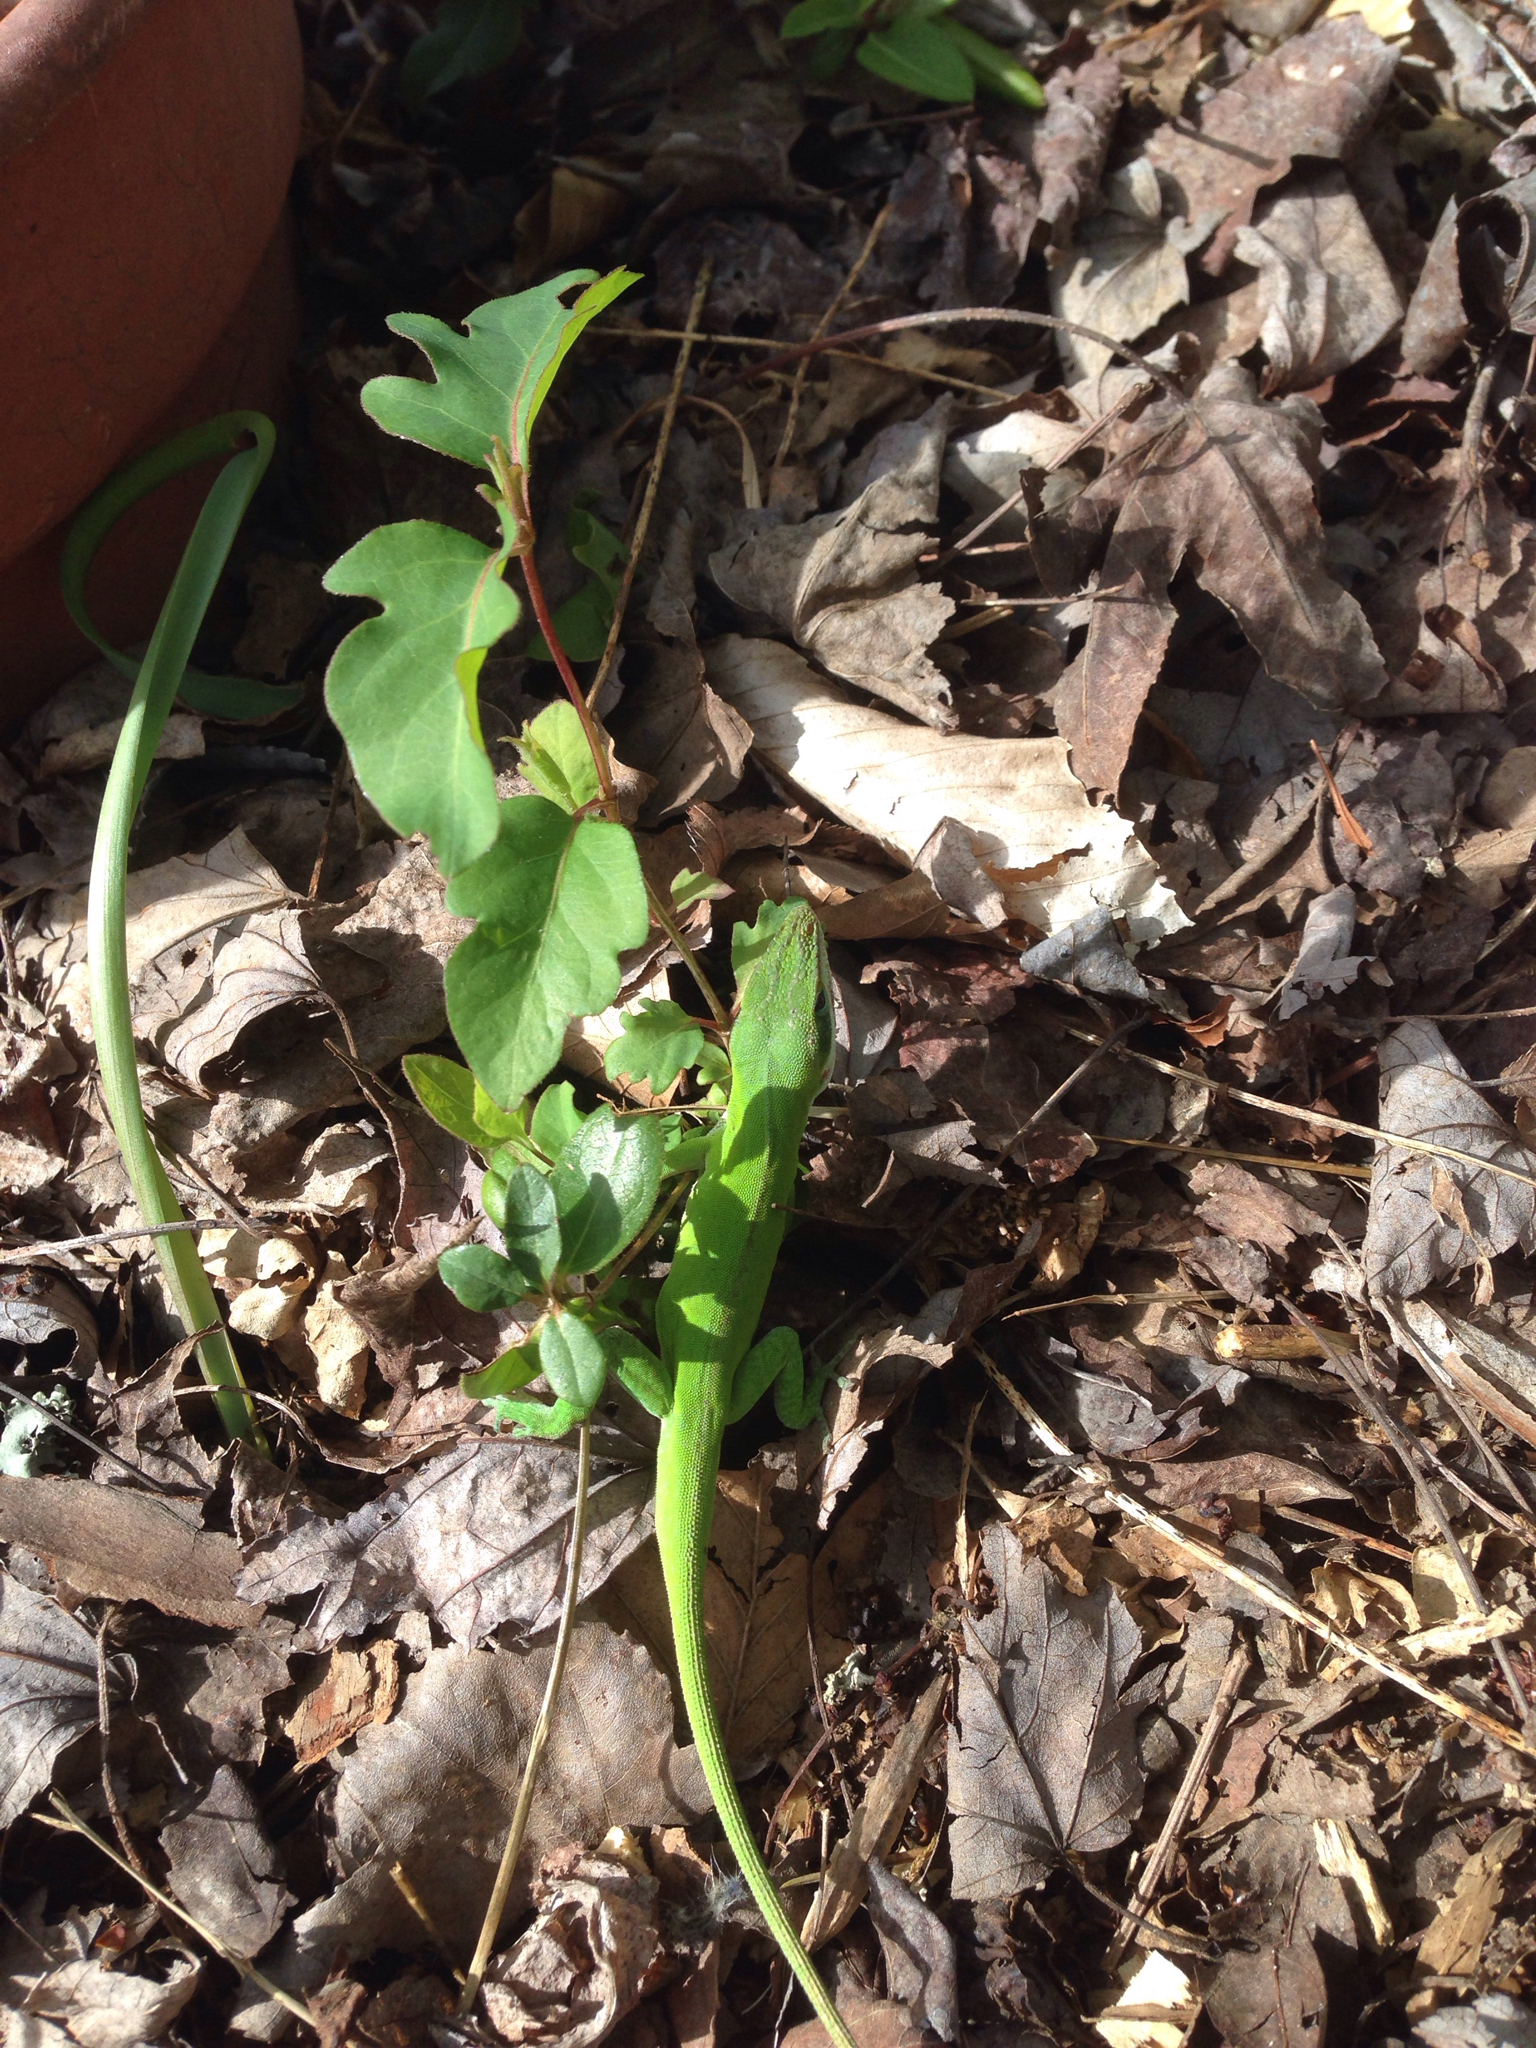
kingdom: Animalia
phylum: Chordata
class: Squamata
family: Dactyloidae
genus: Anolis
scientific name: Anolis carolinensis
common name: Green anole
